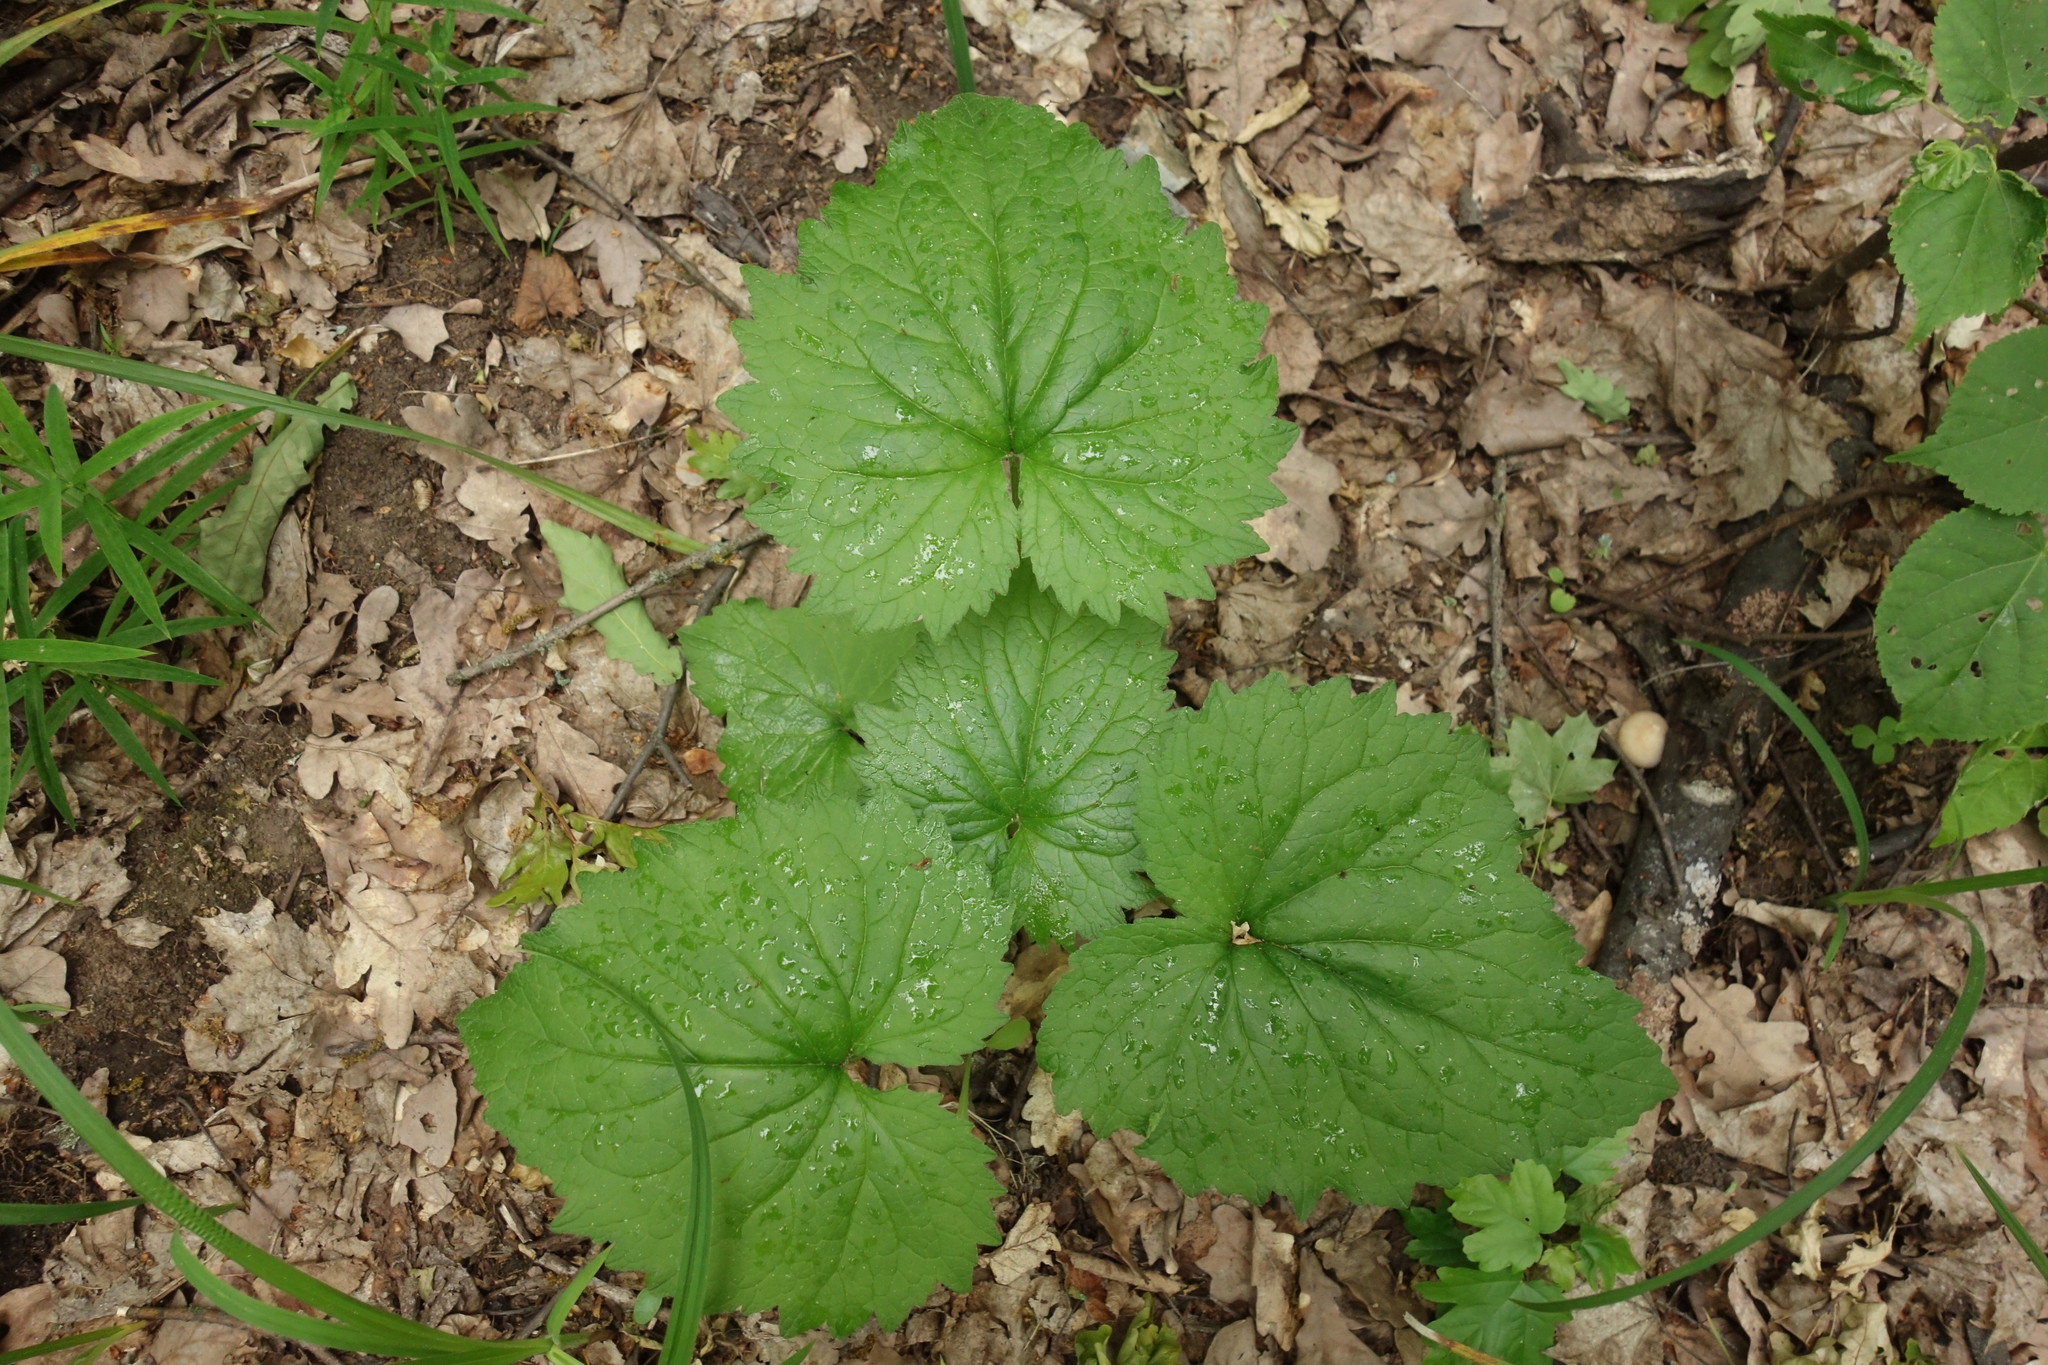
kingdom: Plantae
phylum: Tracheophyta
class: Magnoliopsida
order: Asterales
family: Campanulaceae
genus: Campanula
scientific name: Campanula trachelium
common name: Nettle-leaved bellflower
